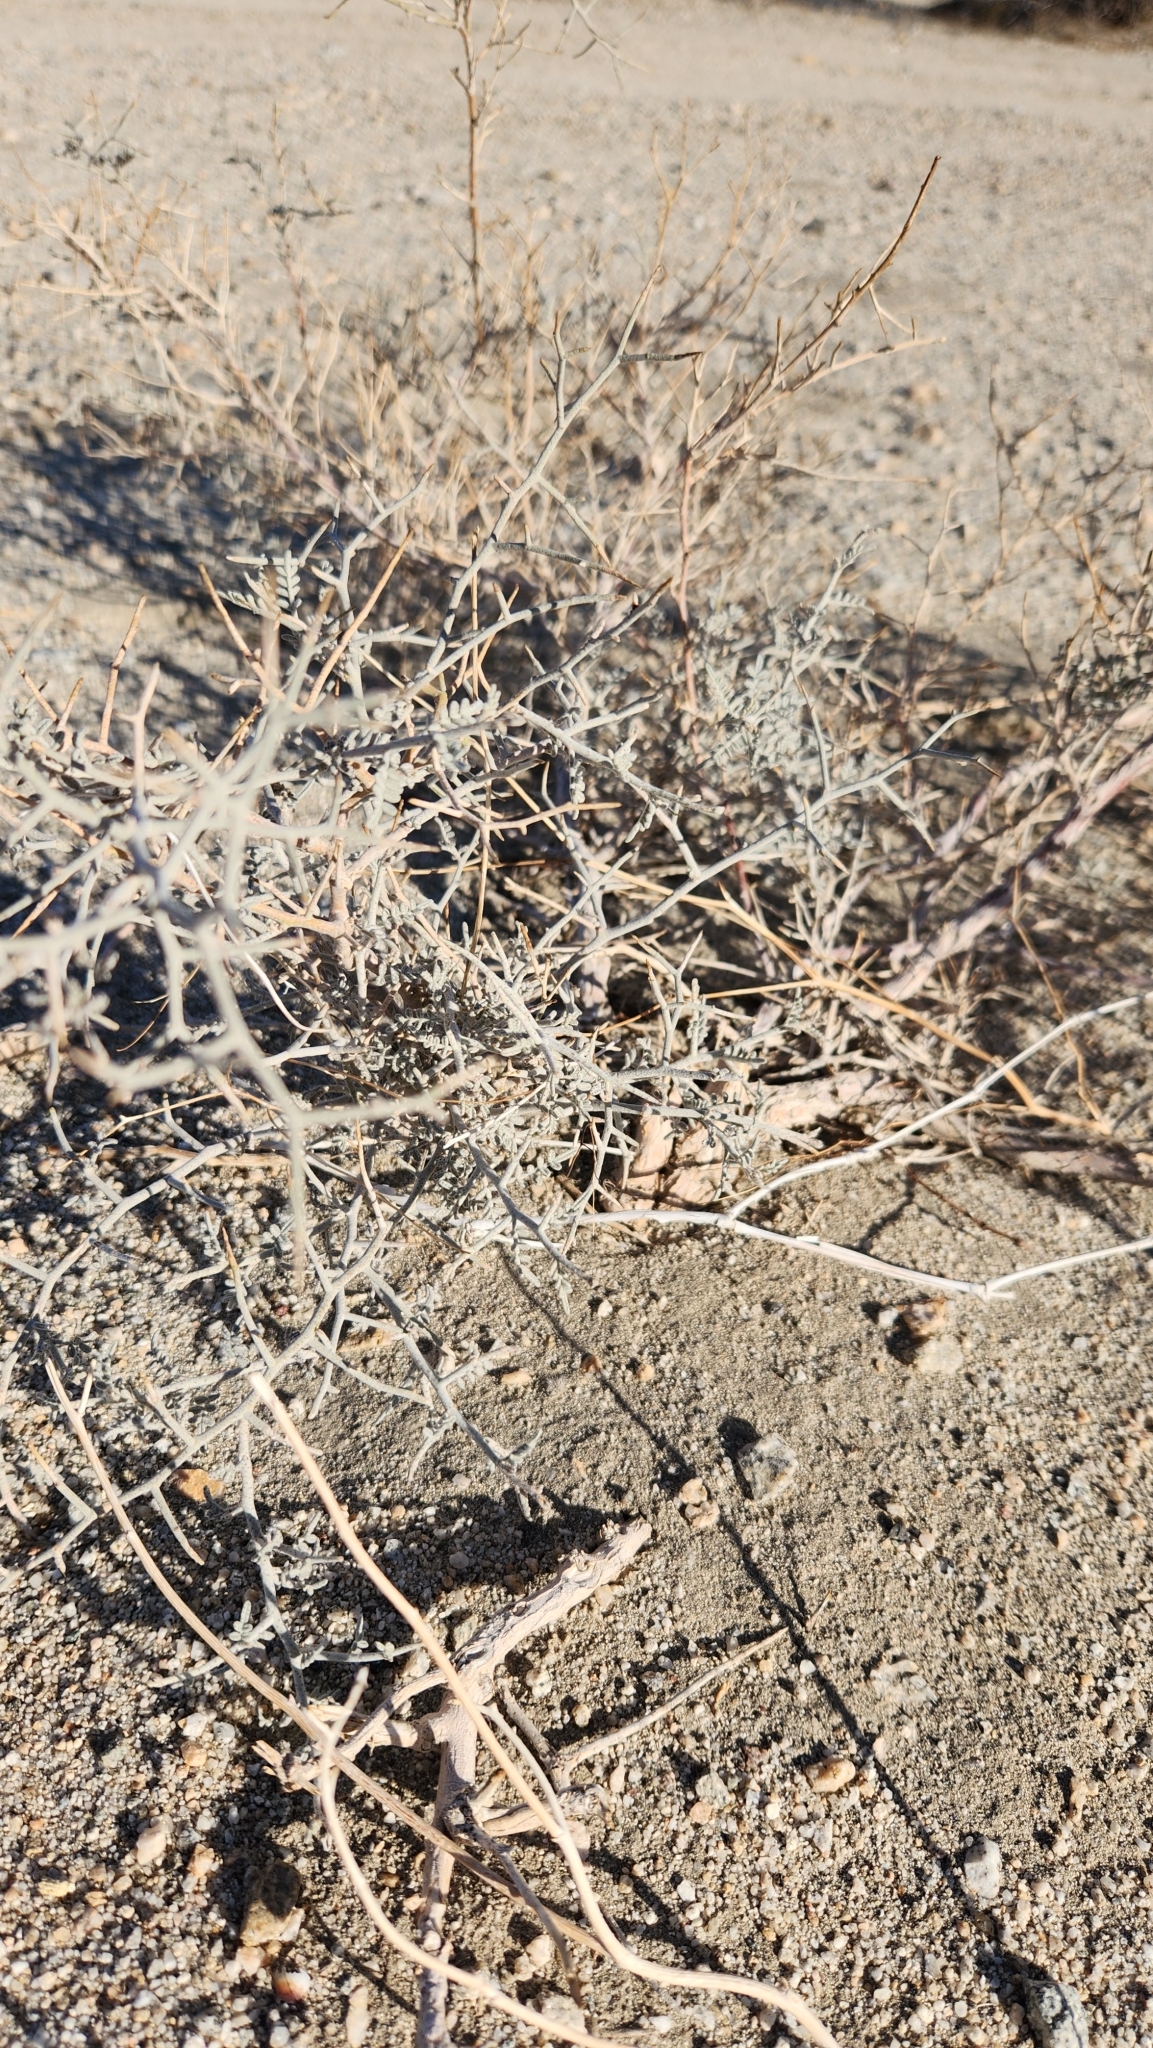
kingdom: Plantae
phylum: Tracheophyta
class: Magnoliopsida
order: Fabales
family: Fabaceae
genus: Psorothamnus
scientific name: Psorothamnus emoryi
